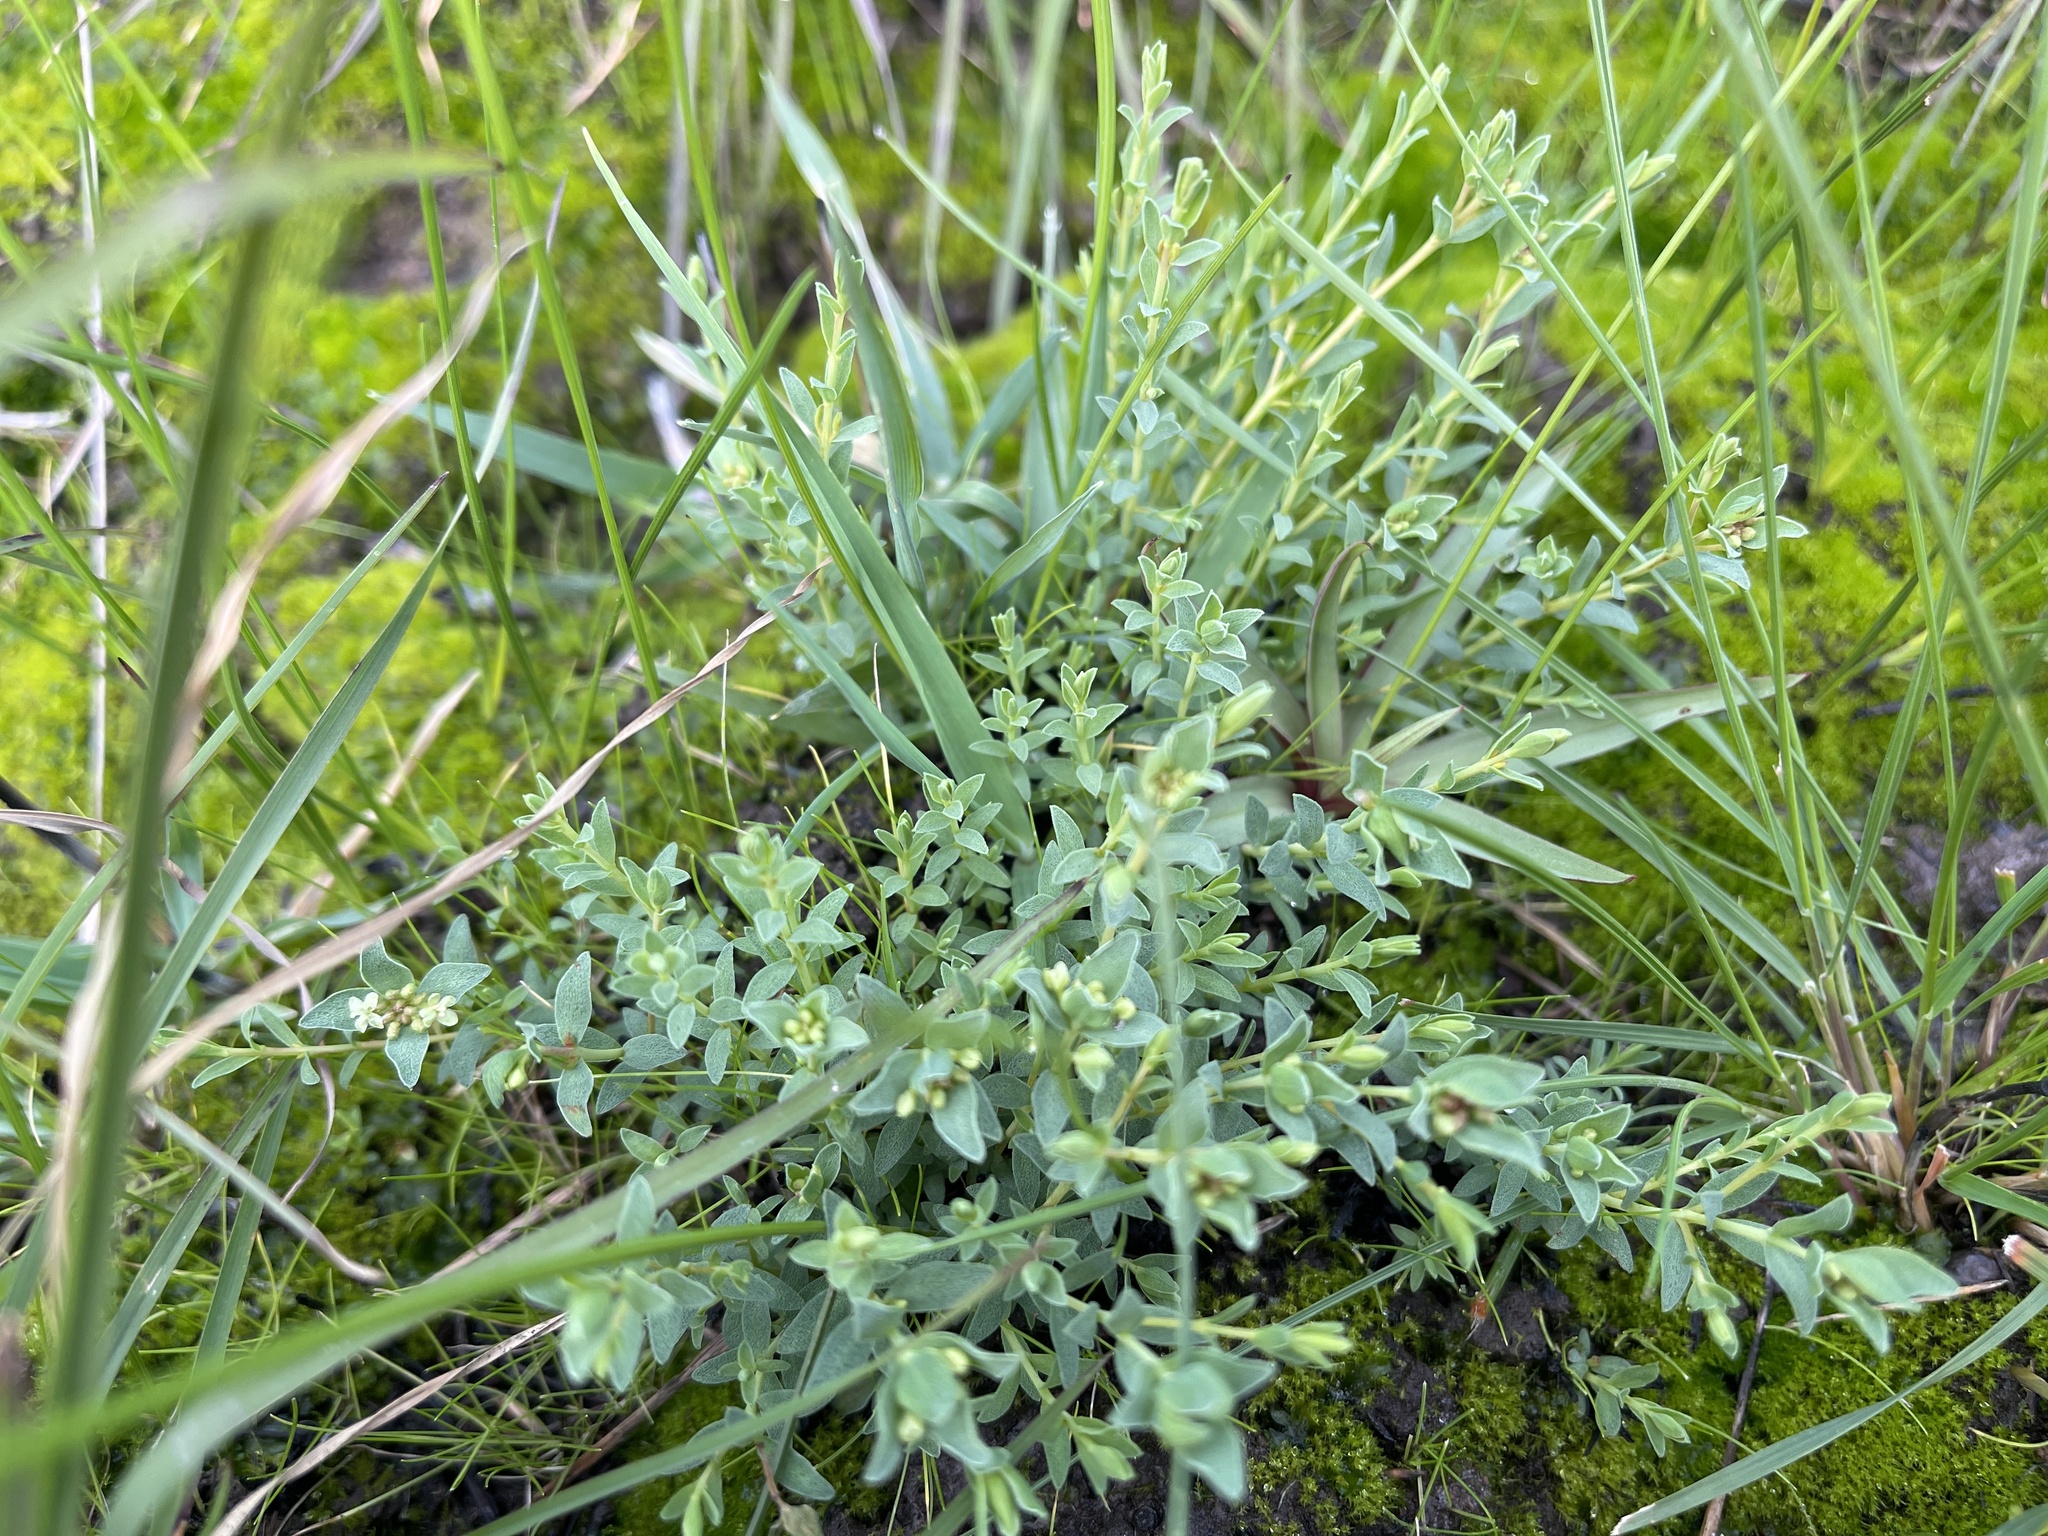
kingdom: Plantae
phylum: Tracheophyta
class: Magnoliopsida
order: Malvales
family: Thymelaeaceae
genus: Pimelea
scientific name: Pimelea spinescens
